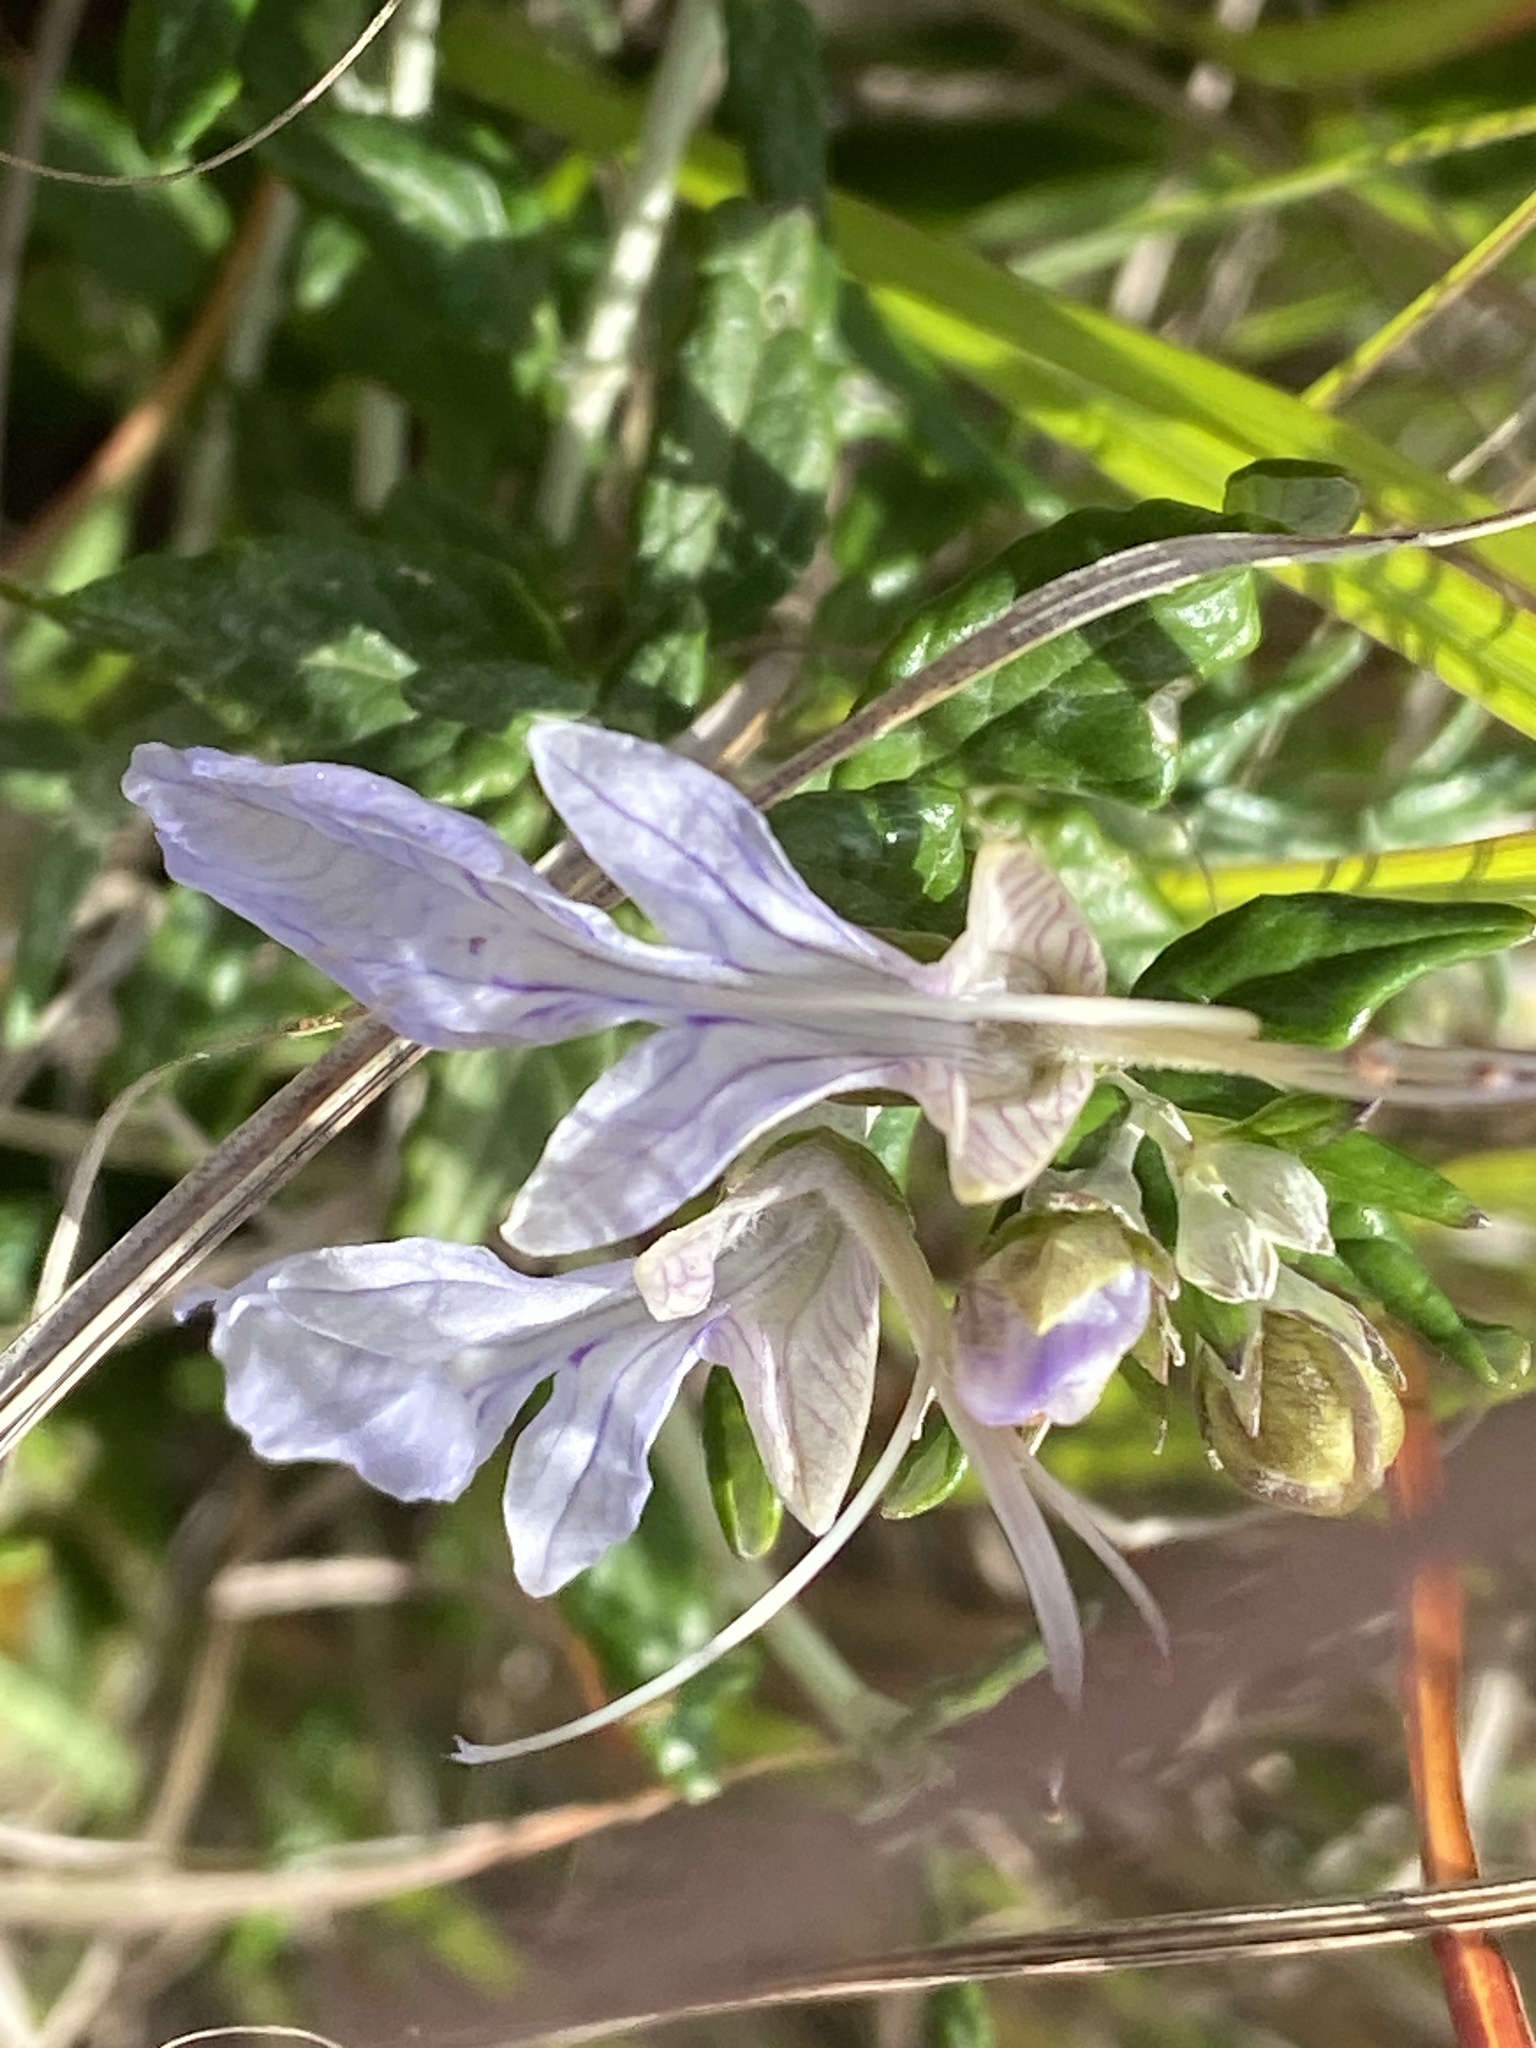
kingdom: Plantae
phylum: Tracheophyta
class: Magnoliopsida
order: Lamiales
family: Lamiaceae
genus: Teucrium
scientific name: Teucrium fruticans
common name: Shrubby germander
